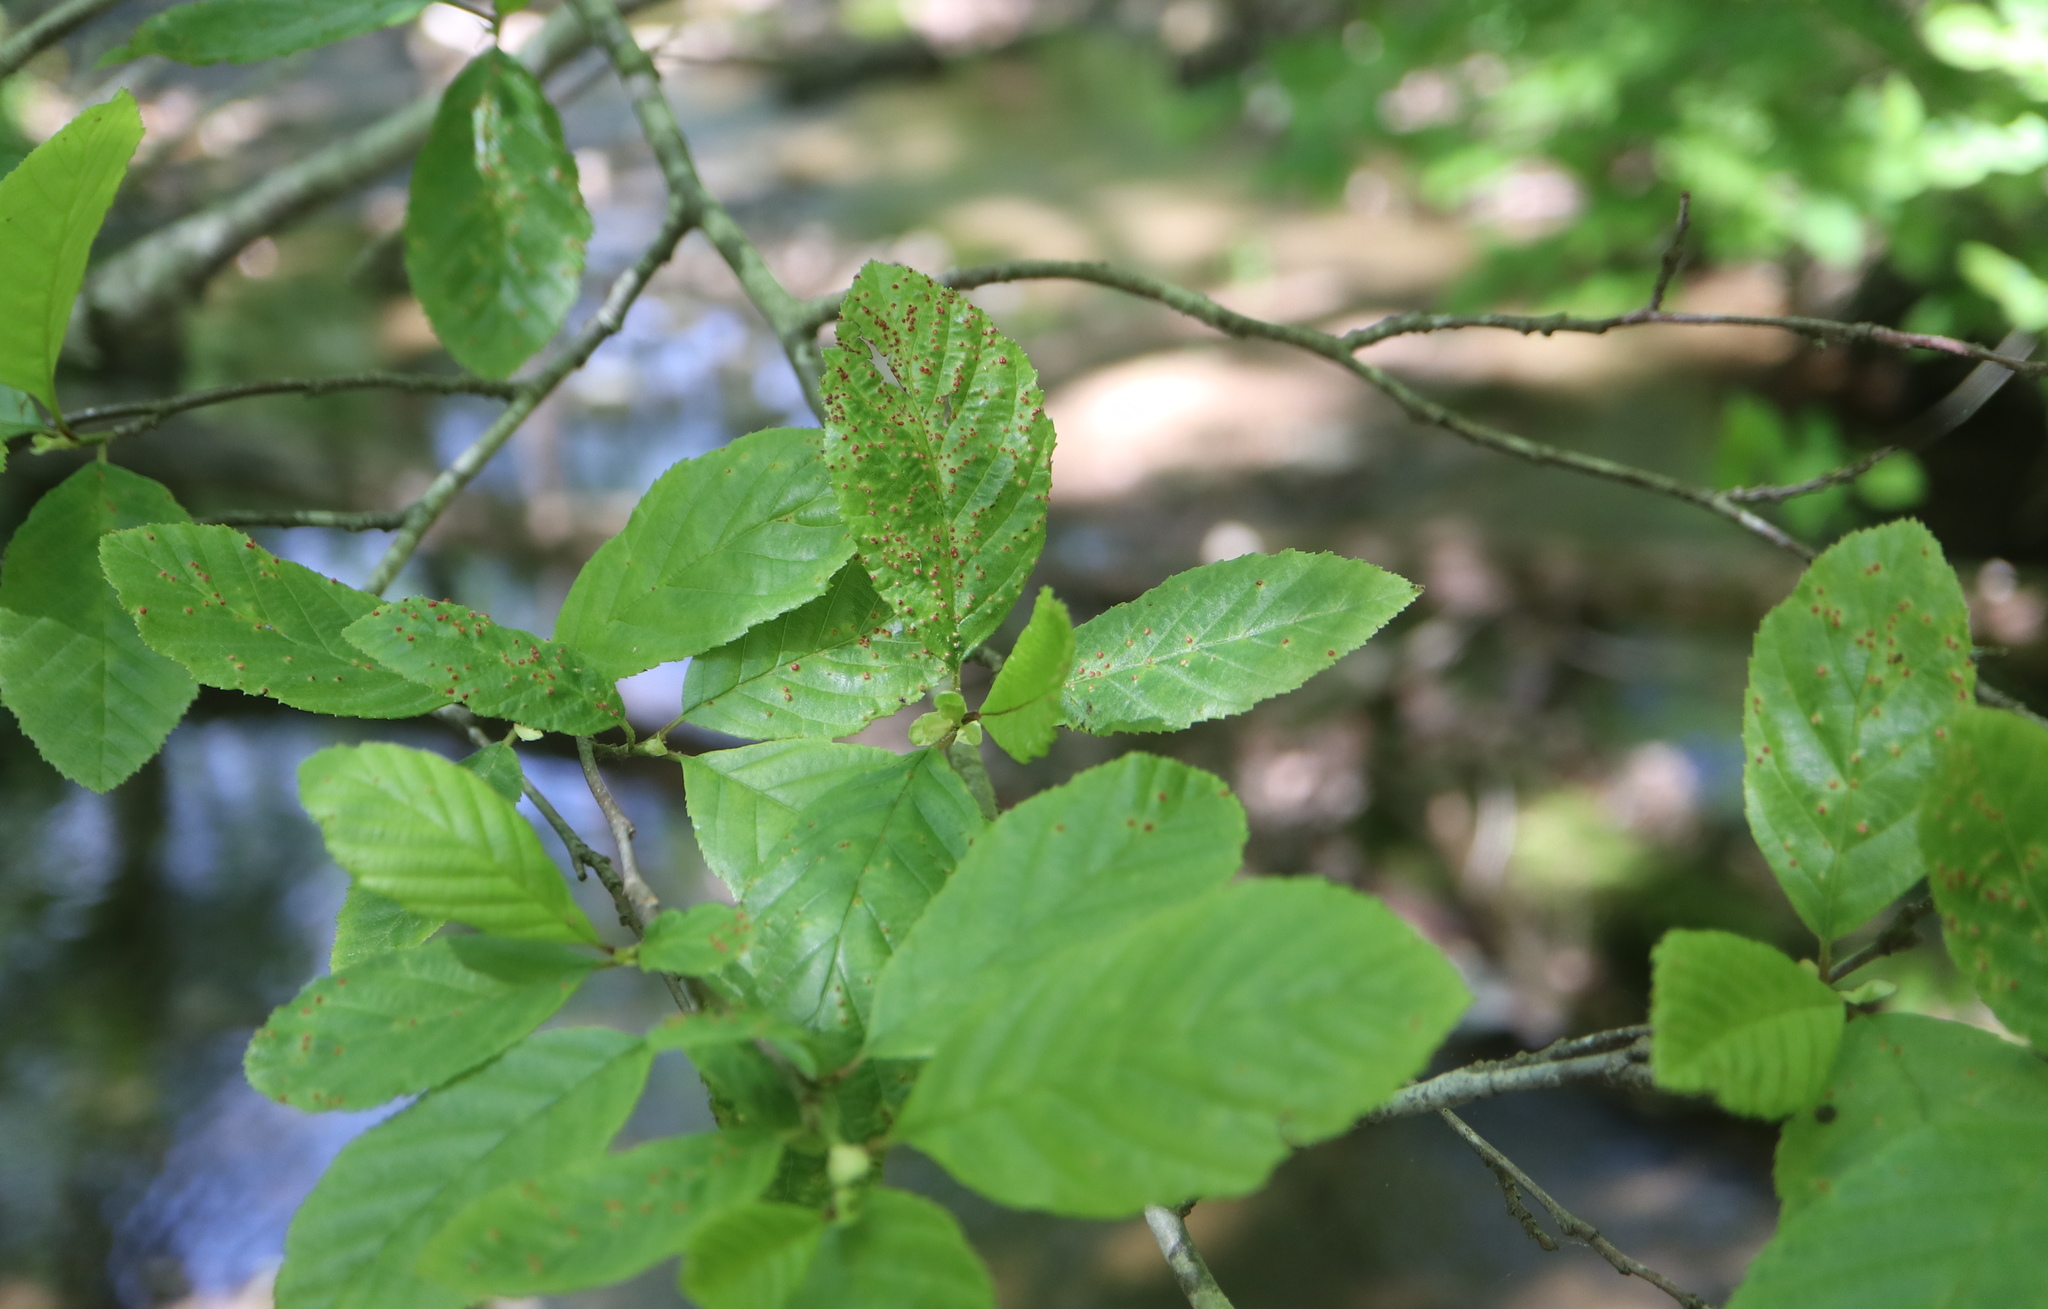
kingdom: Animalia
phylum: Arthropoda
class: Arachnida
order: Trombidiformes
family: Eriophyidae
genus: Eriophyes
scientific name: Eriophyes laevis
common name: Alder leaf gall mite
